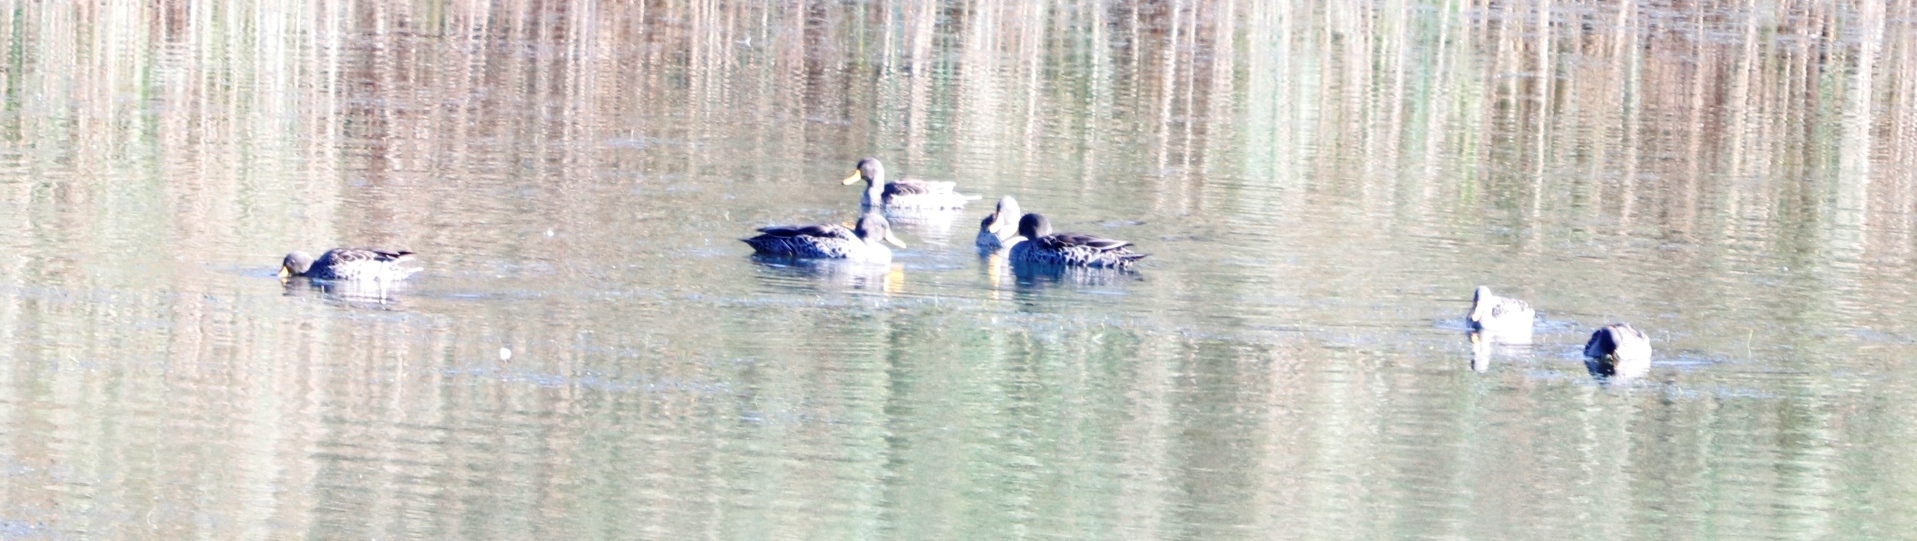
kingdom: Animalia
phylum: Chordata
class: Aves
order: Anseriformes
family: Anatidae
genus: Anas
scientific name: Anas undulata
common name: Yellow-billed duck
